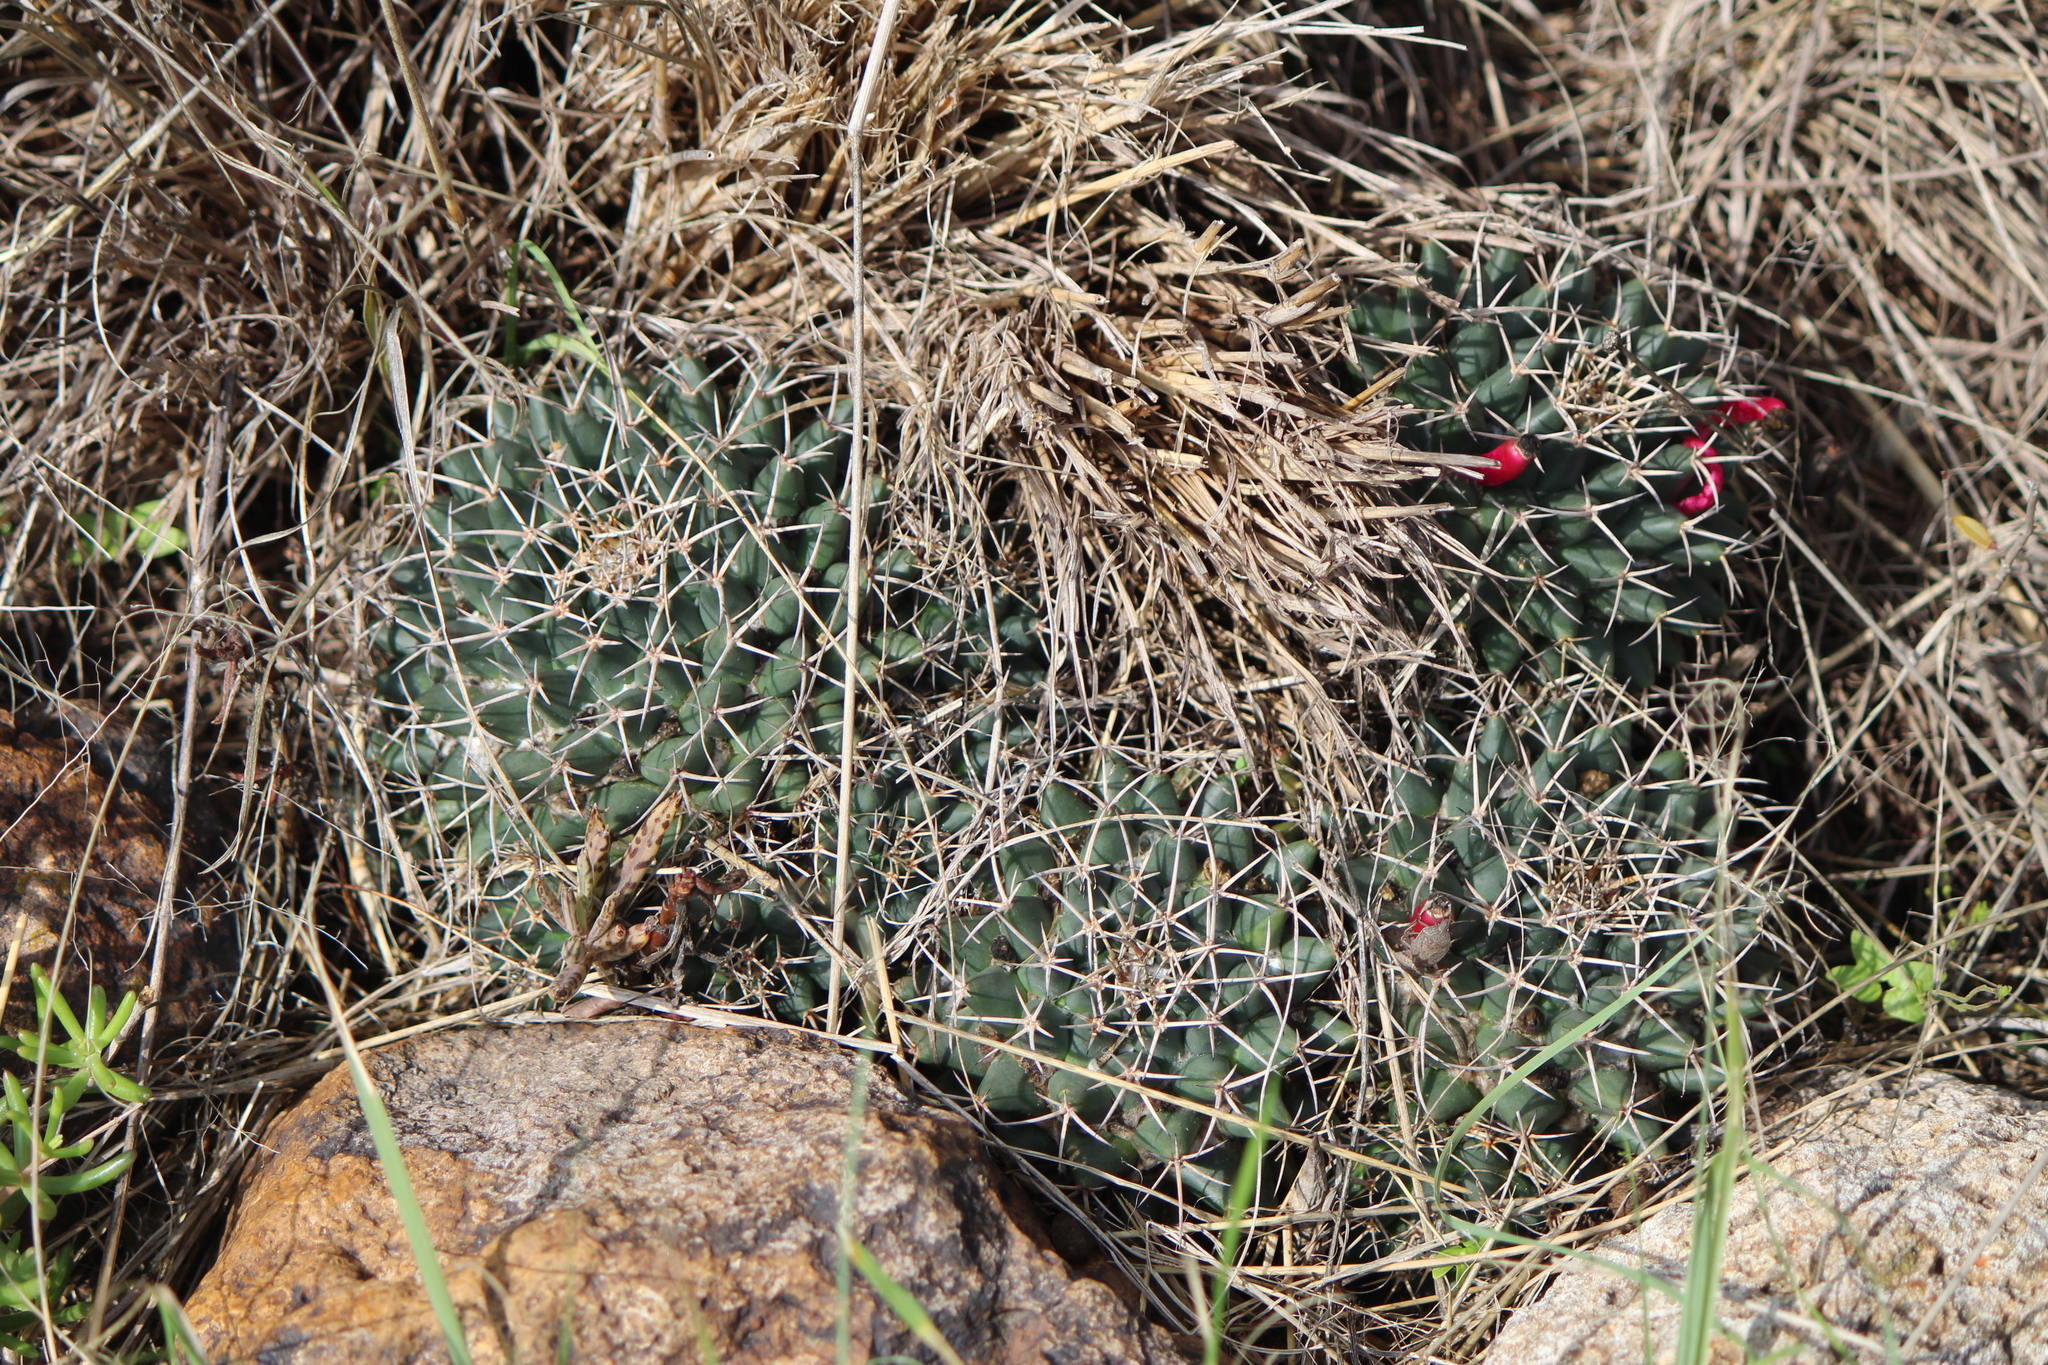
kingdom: Plantae
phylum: Tracheophyta
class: Magnoliopsida
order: Caryophyllales
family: Cactaceae
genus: Mammillaria
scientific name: Mammillaria magnimamma
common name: Mexican pincushion
